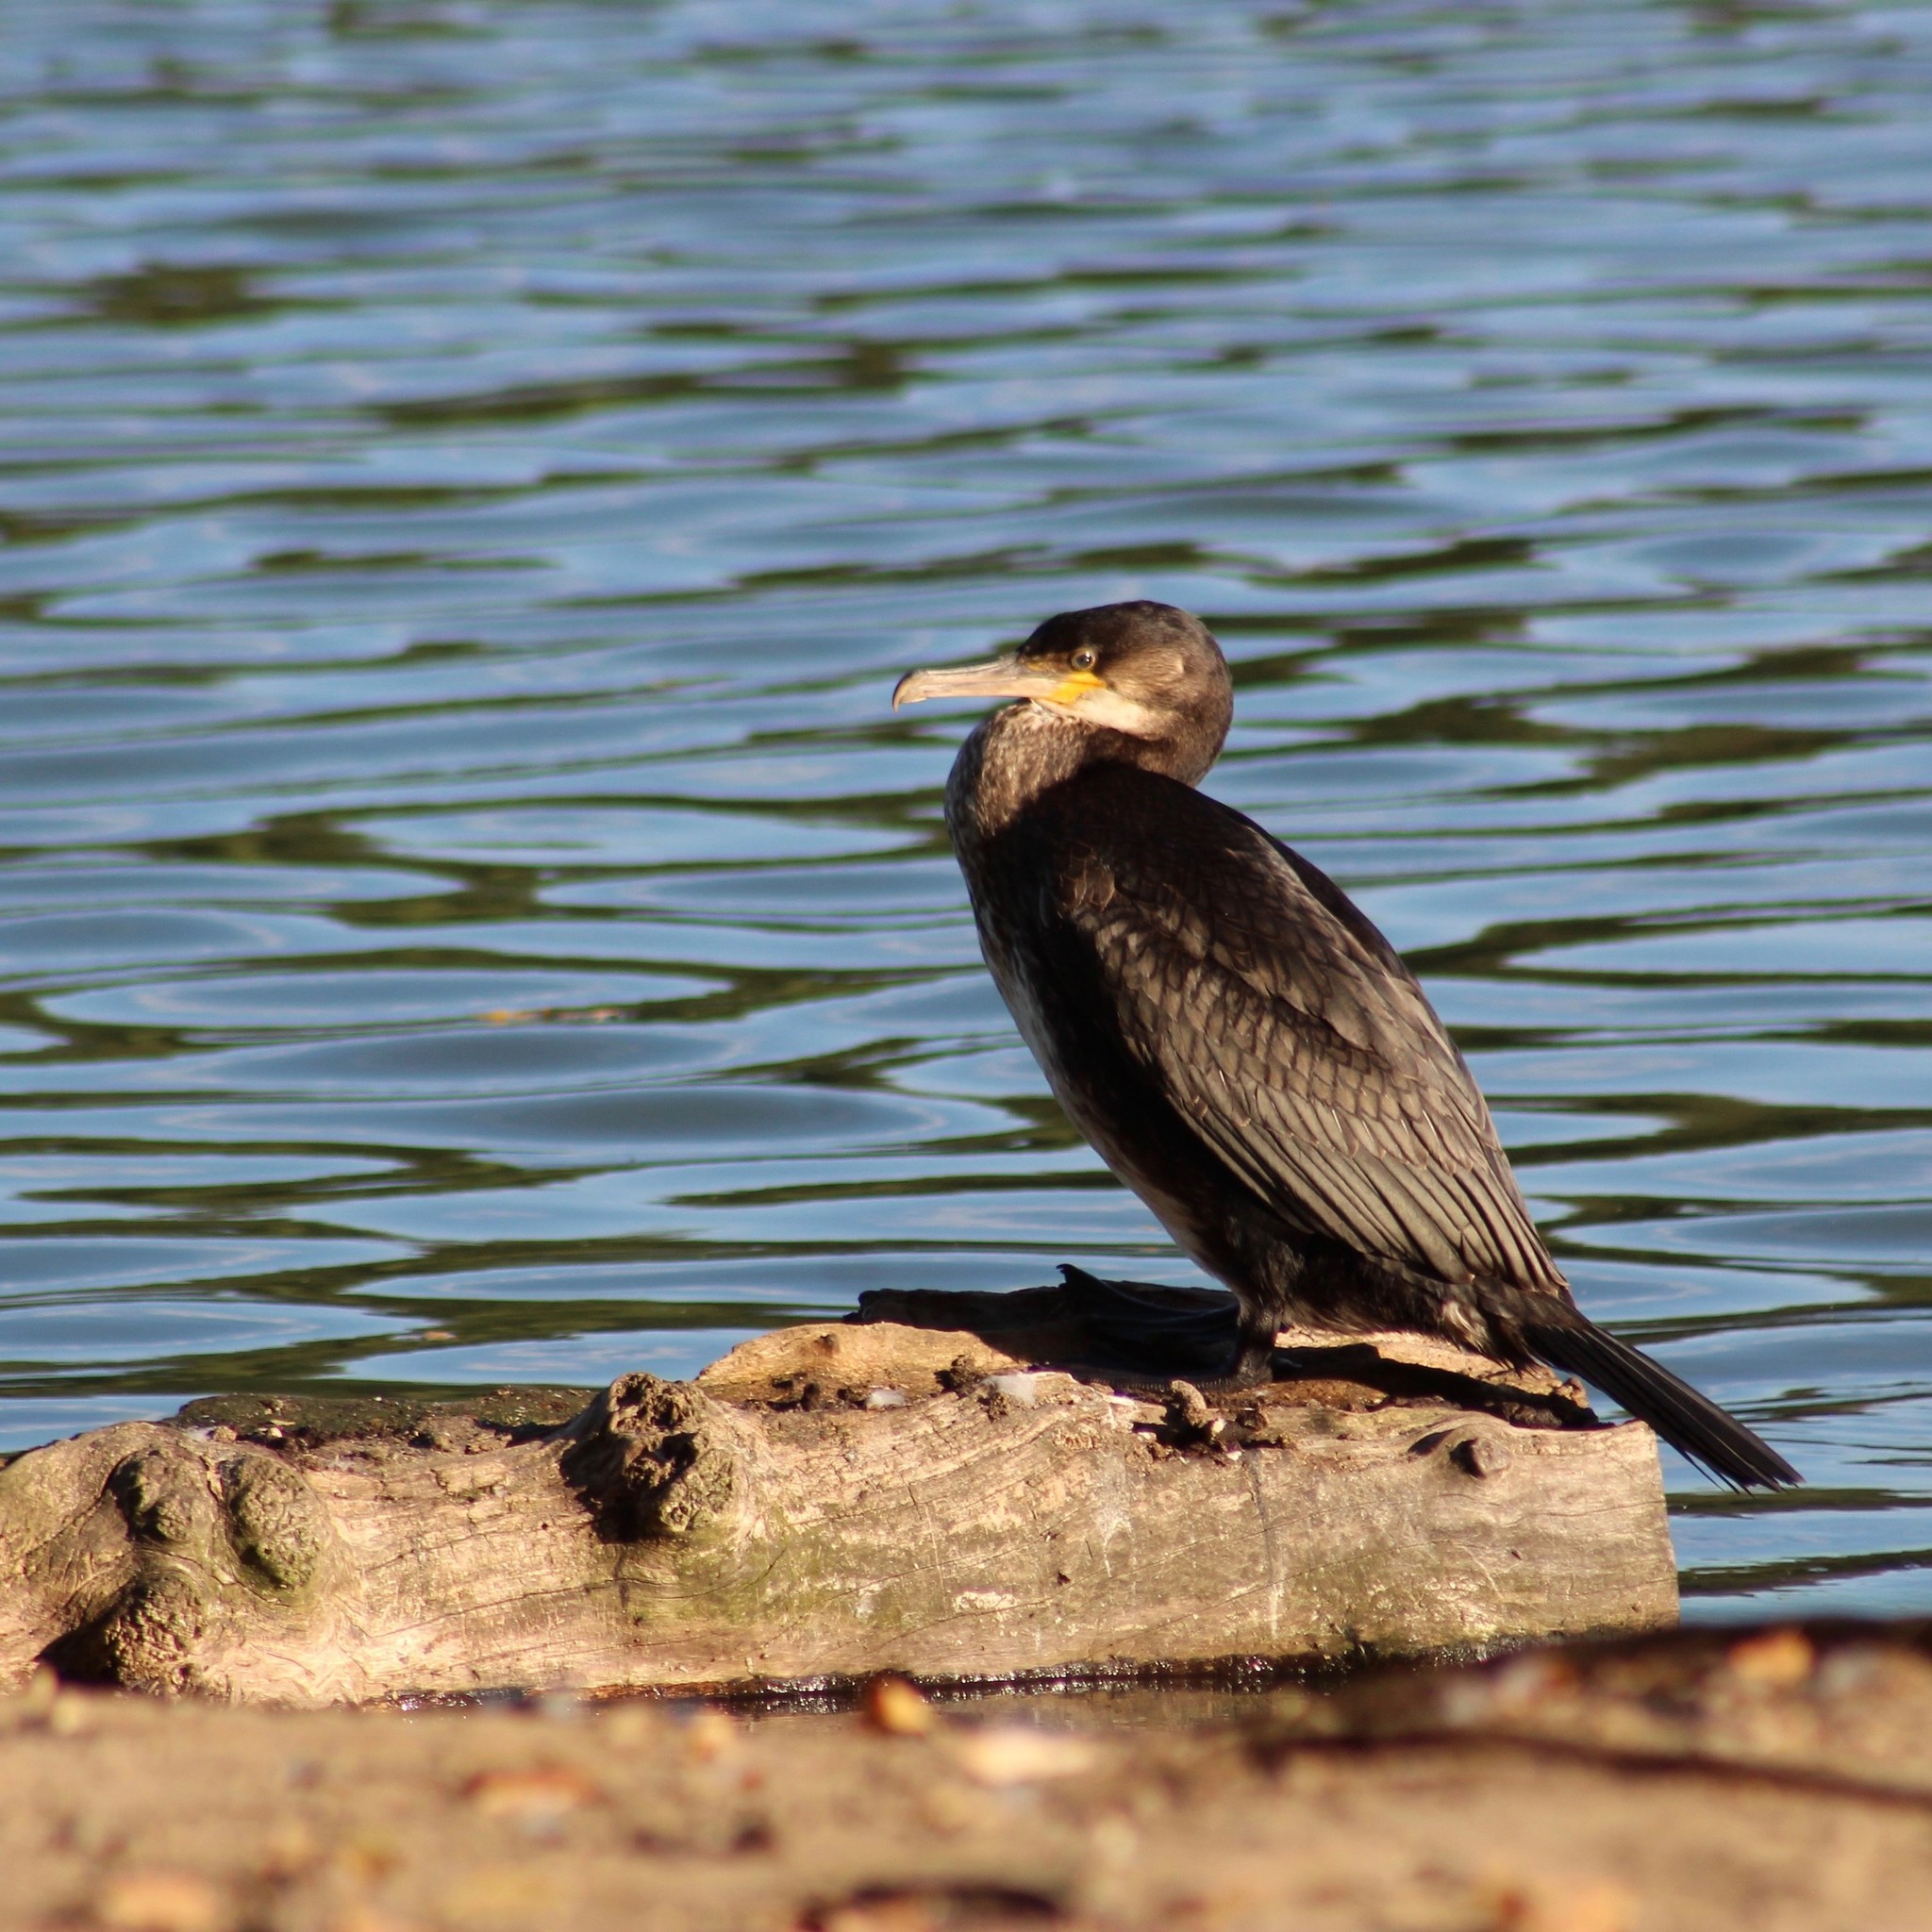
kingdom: Animalia
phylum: Chordata
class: Aves
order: Suliformes
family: Phalacrocoracidae
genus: Phalacrocorax
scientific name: Phalacrocorax carbo
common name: Great cormorant
